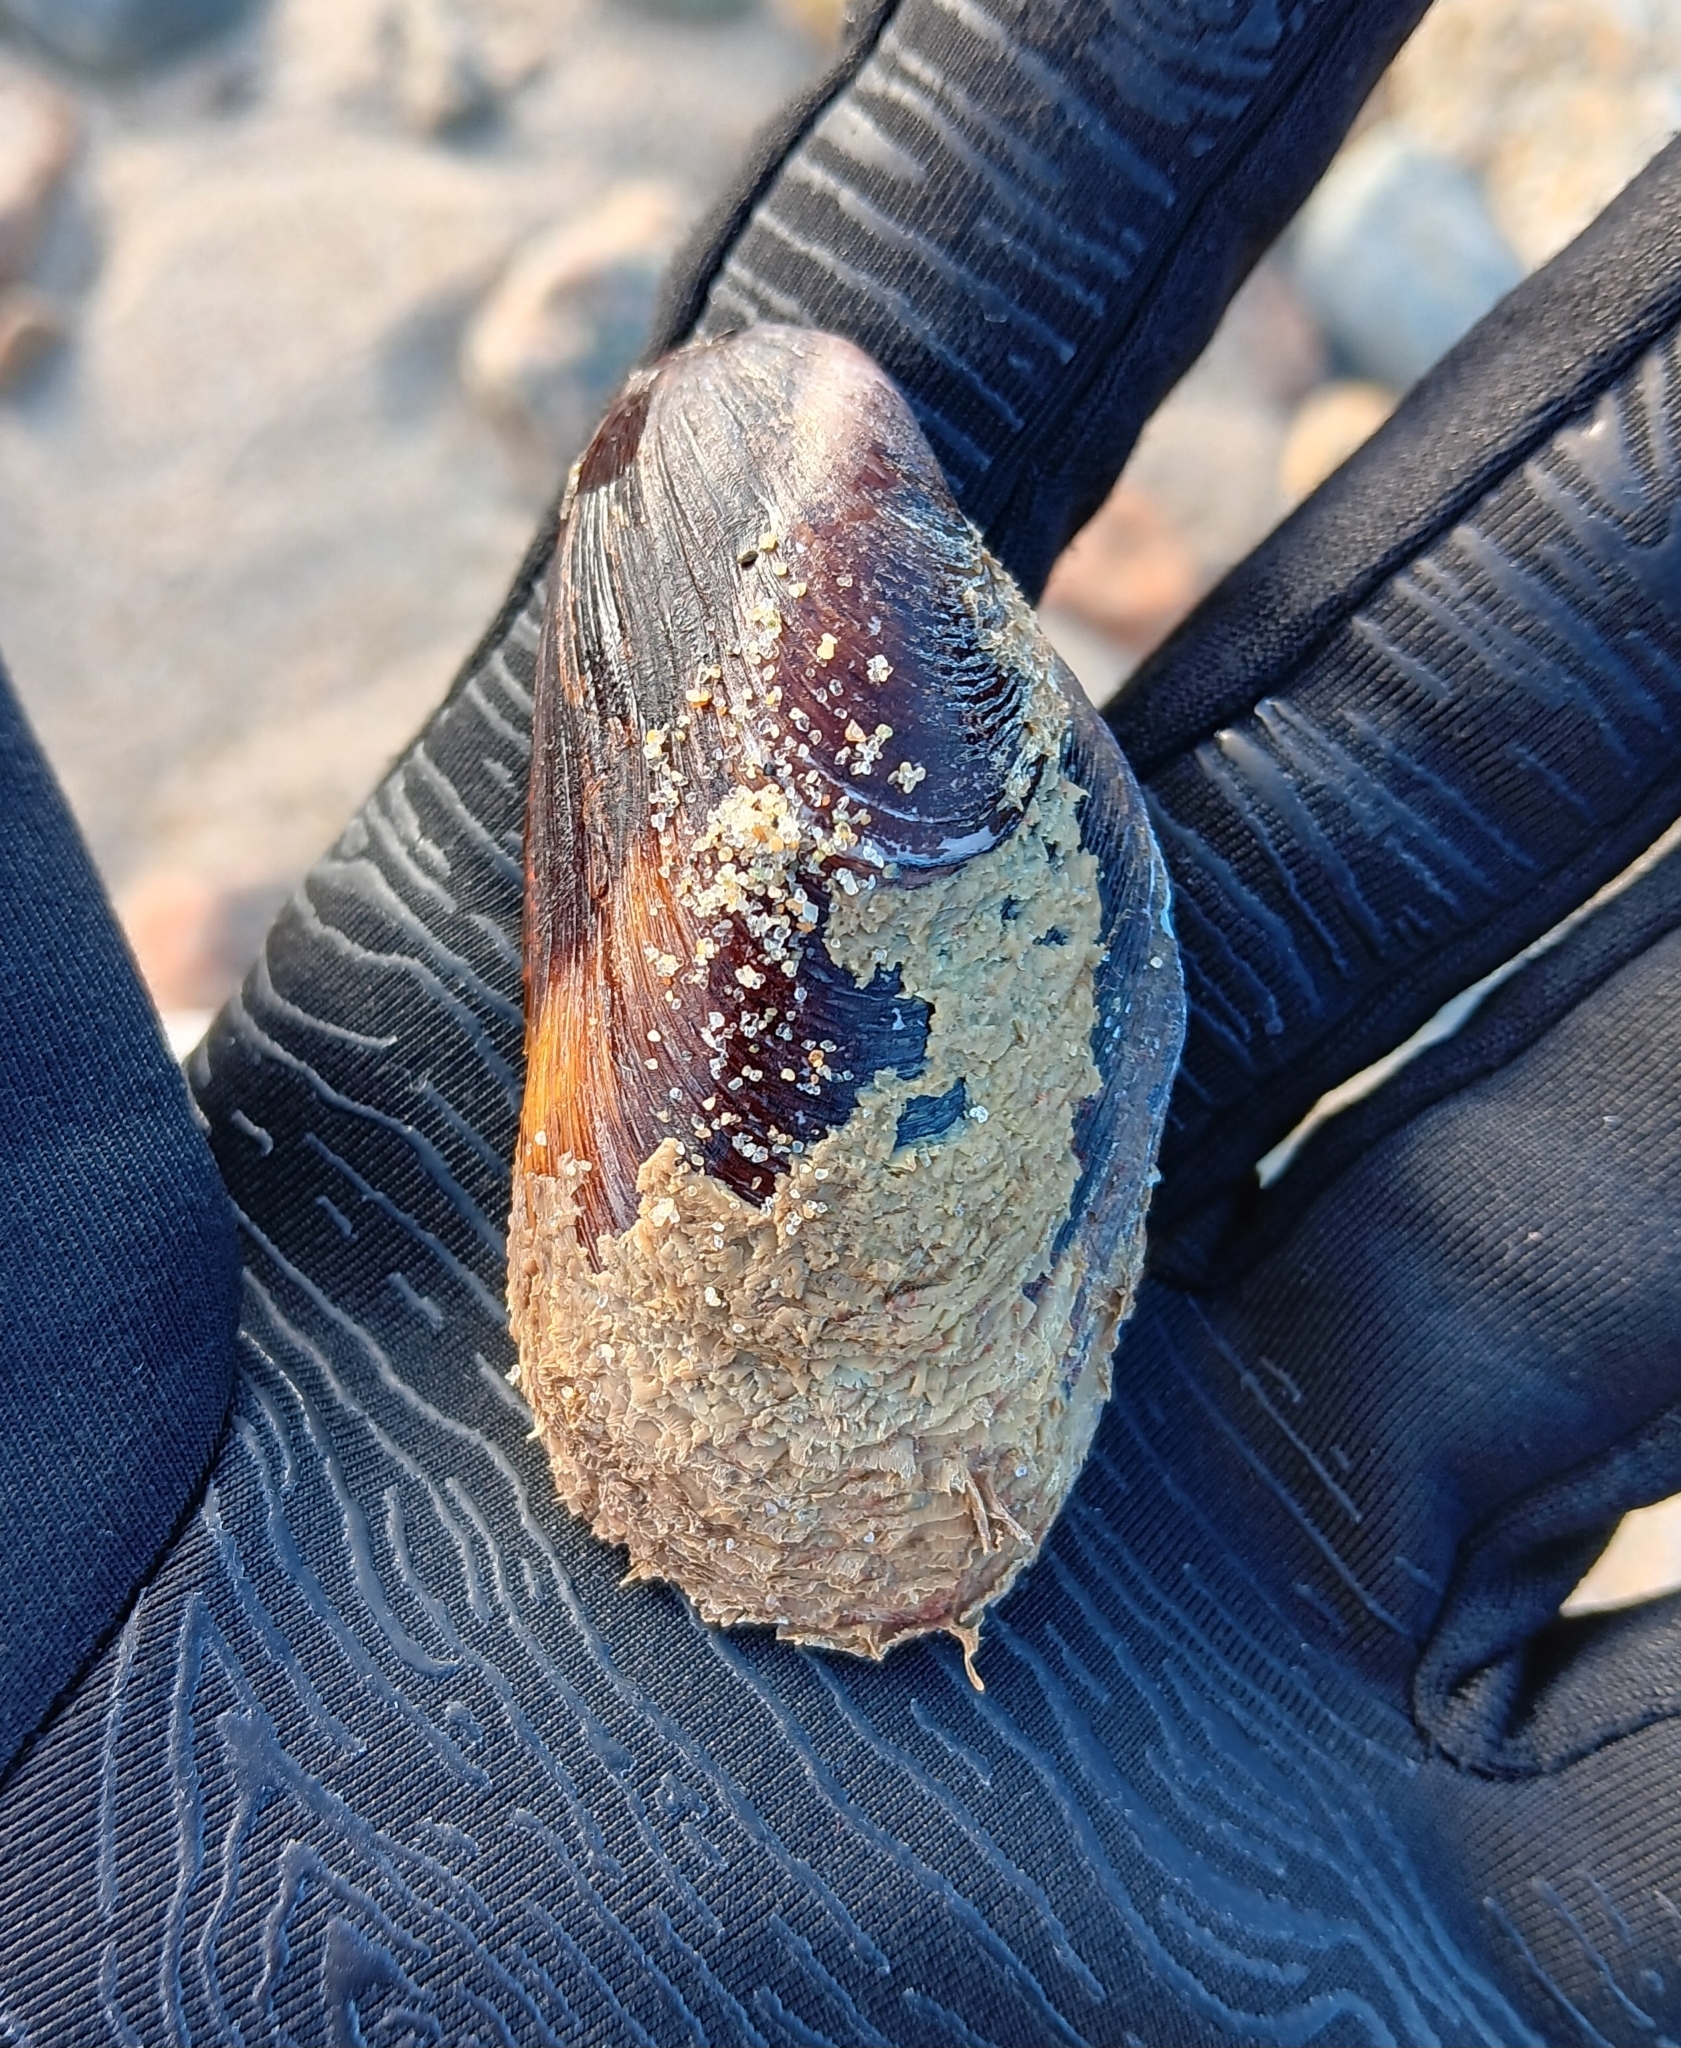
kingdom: Animalia
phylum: Mollusca
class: Bivalvia
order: Mytilida
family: Mytilidae
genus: Modiolus
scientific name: Modiolus modiolus
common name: Horse-mussel
